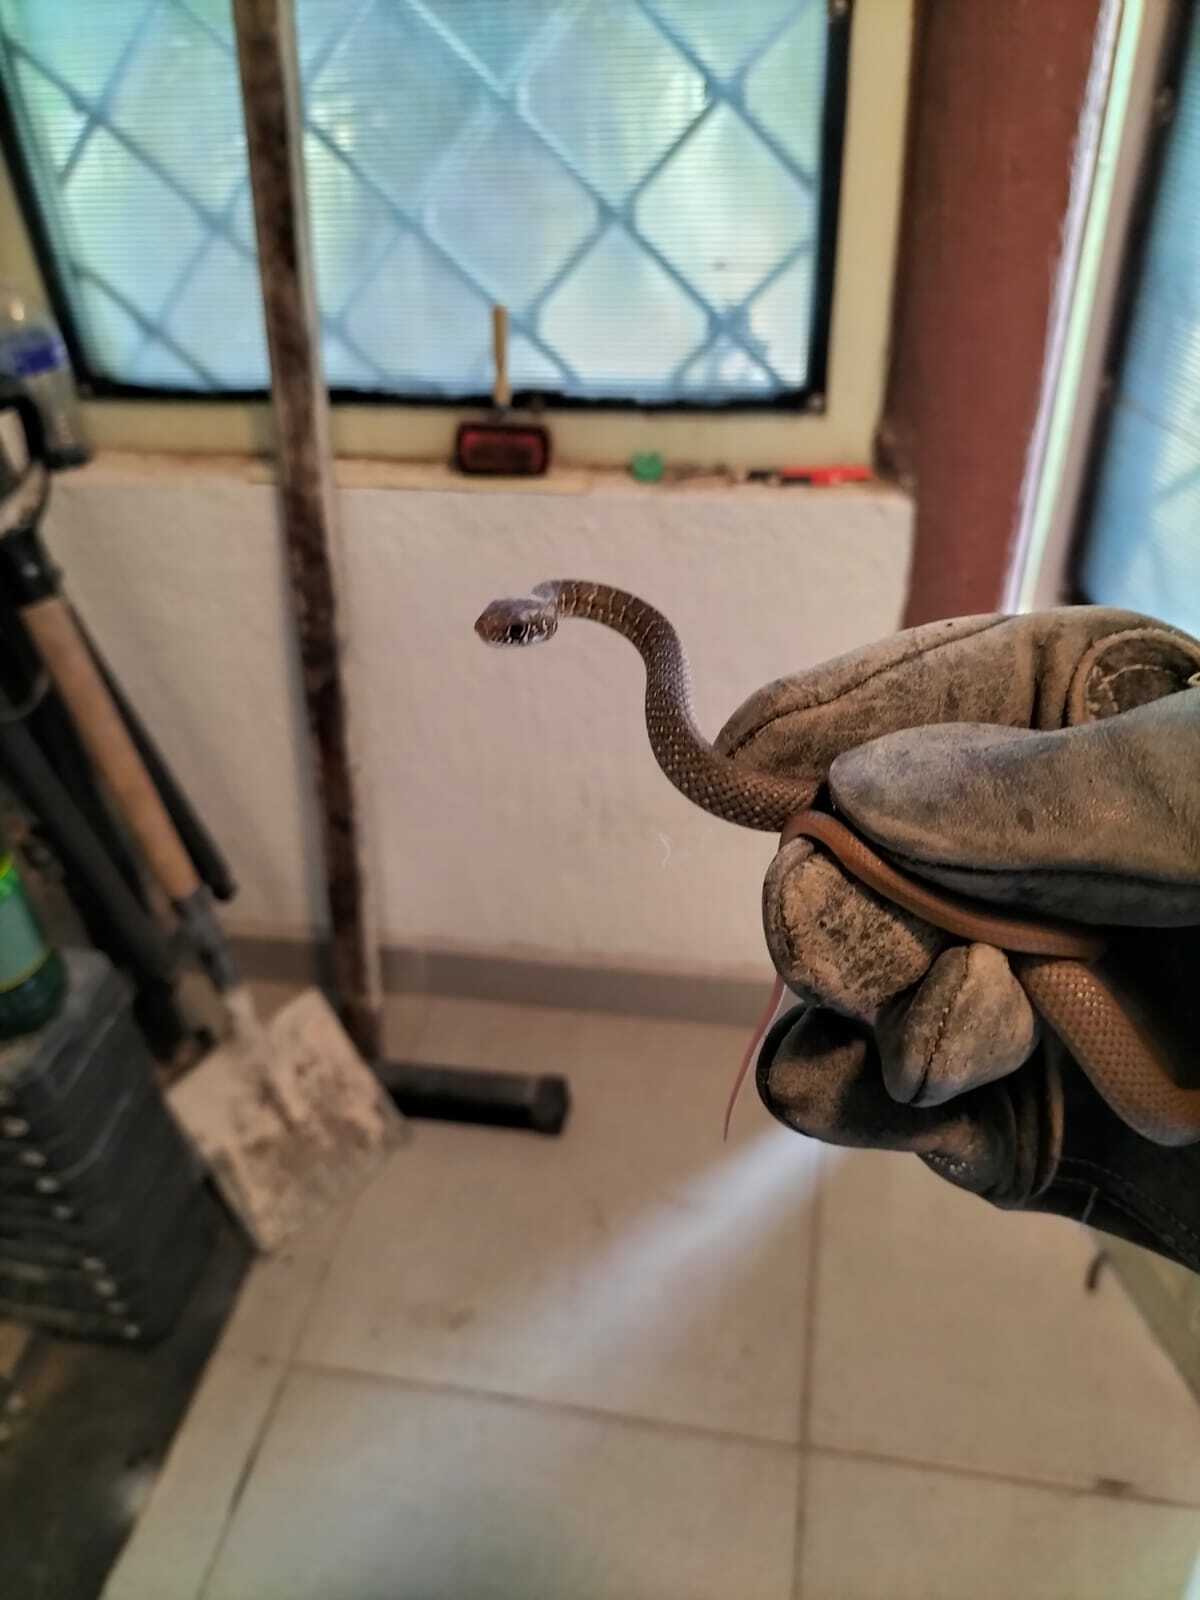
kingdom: Animalia
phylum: Chordata
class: Squamata
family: Colubridae
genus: Masticophis
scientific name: Masticophis mentovarius
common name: Neotropical whip snake
